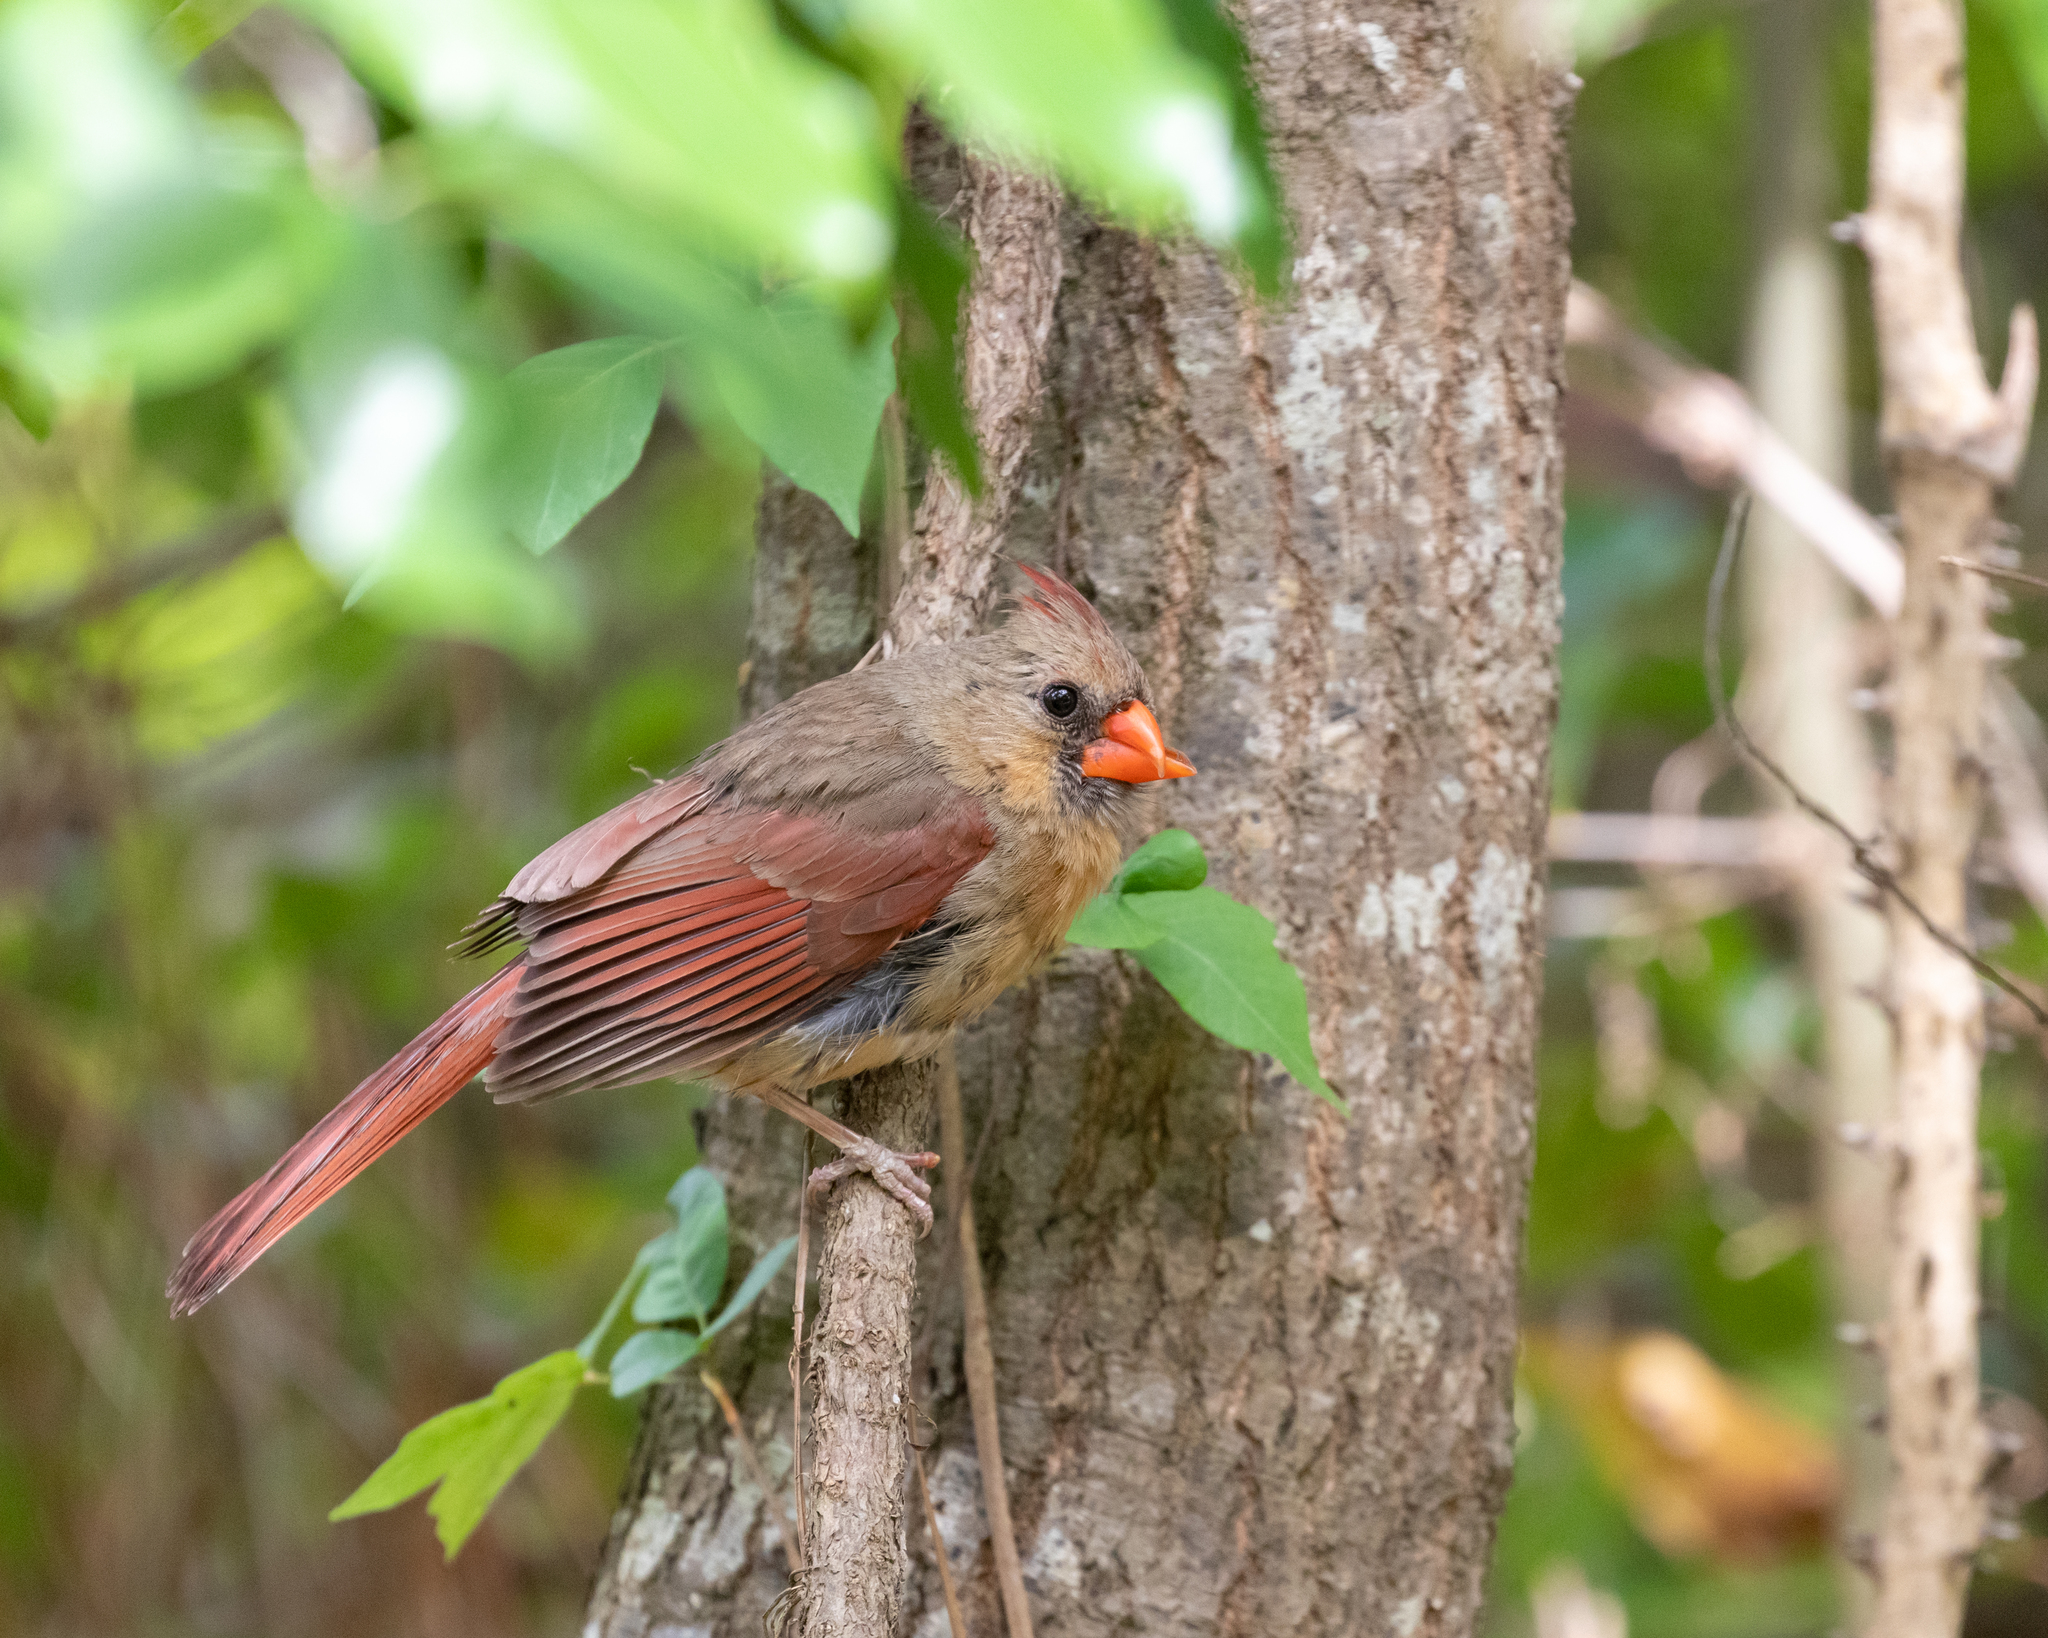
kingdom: Animalia
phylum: Chordata
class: Aves
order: Passeriformes
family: Cardinalidae
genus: Cardinalis
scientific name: Cardinalis cardinalis
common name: Northern cardinal
